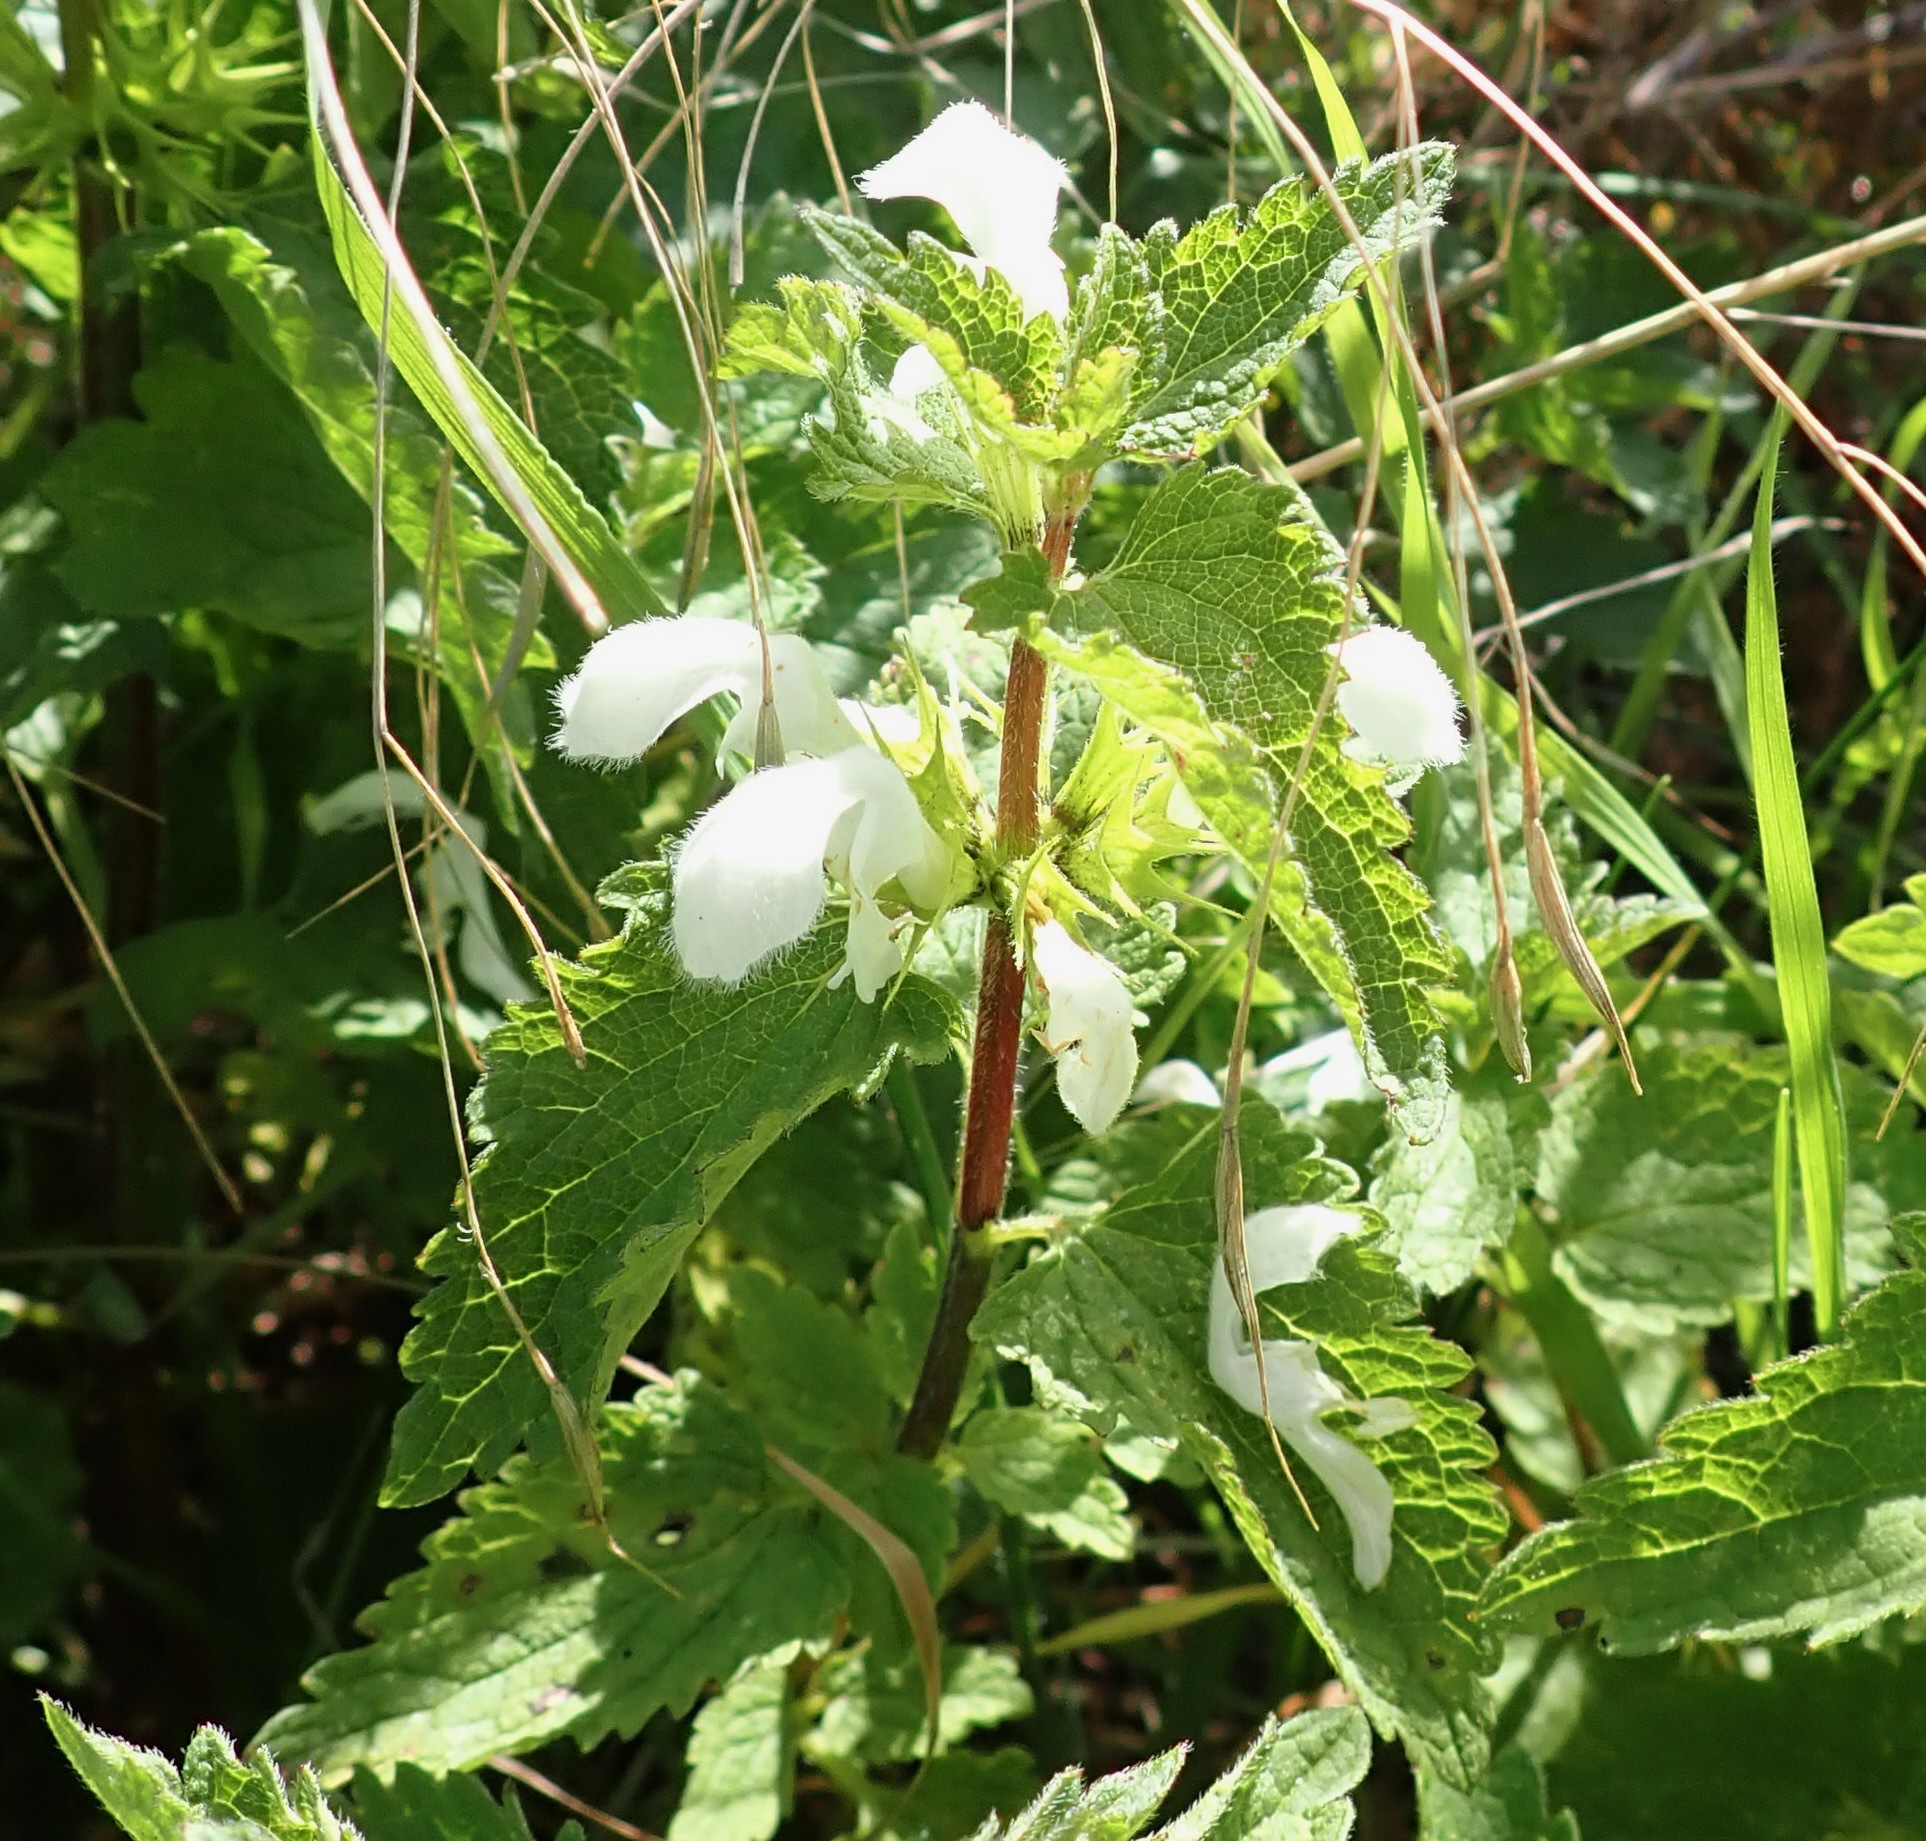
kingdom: Plantae
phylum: Tracheophyta
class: Magnoliopsida
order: Lamiales
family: Lamiaceae
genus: Lamium
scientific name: Lamium album
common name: White dead-nettle
